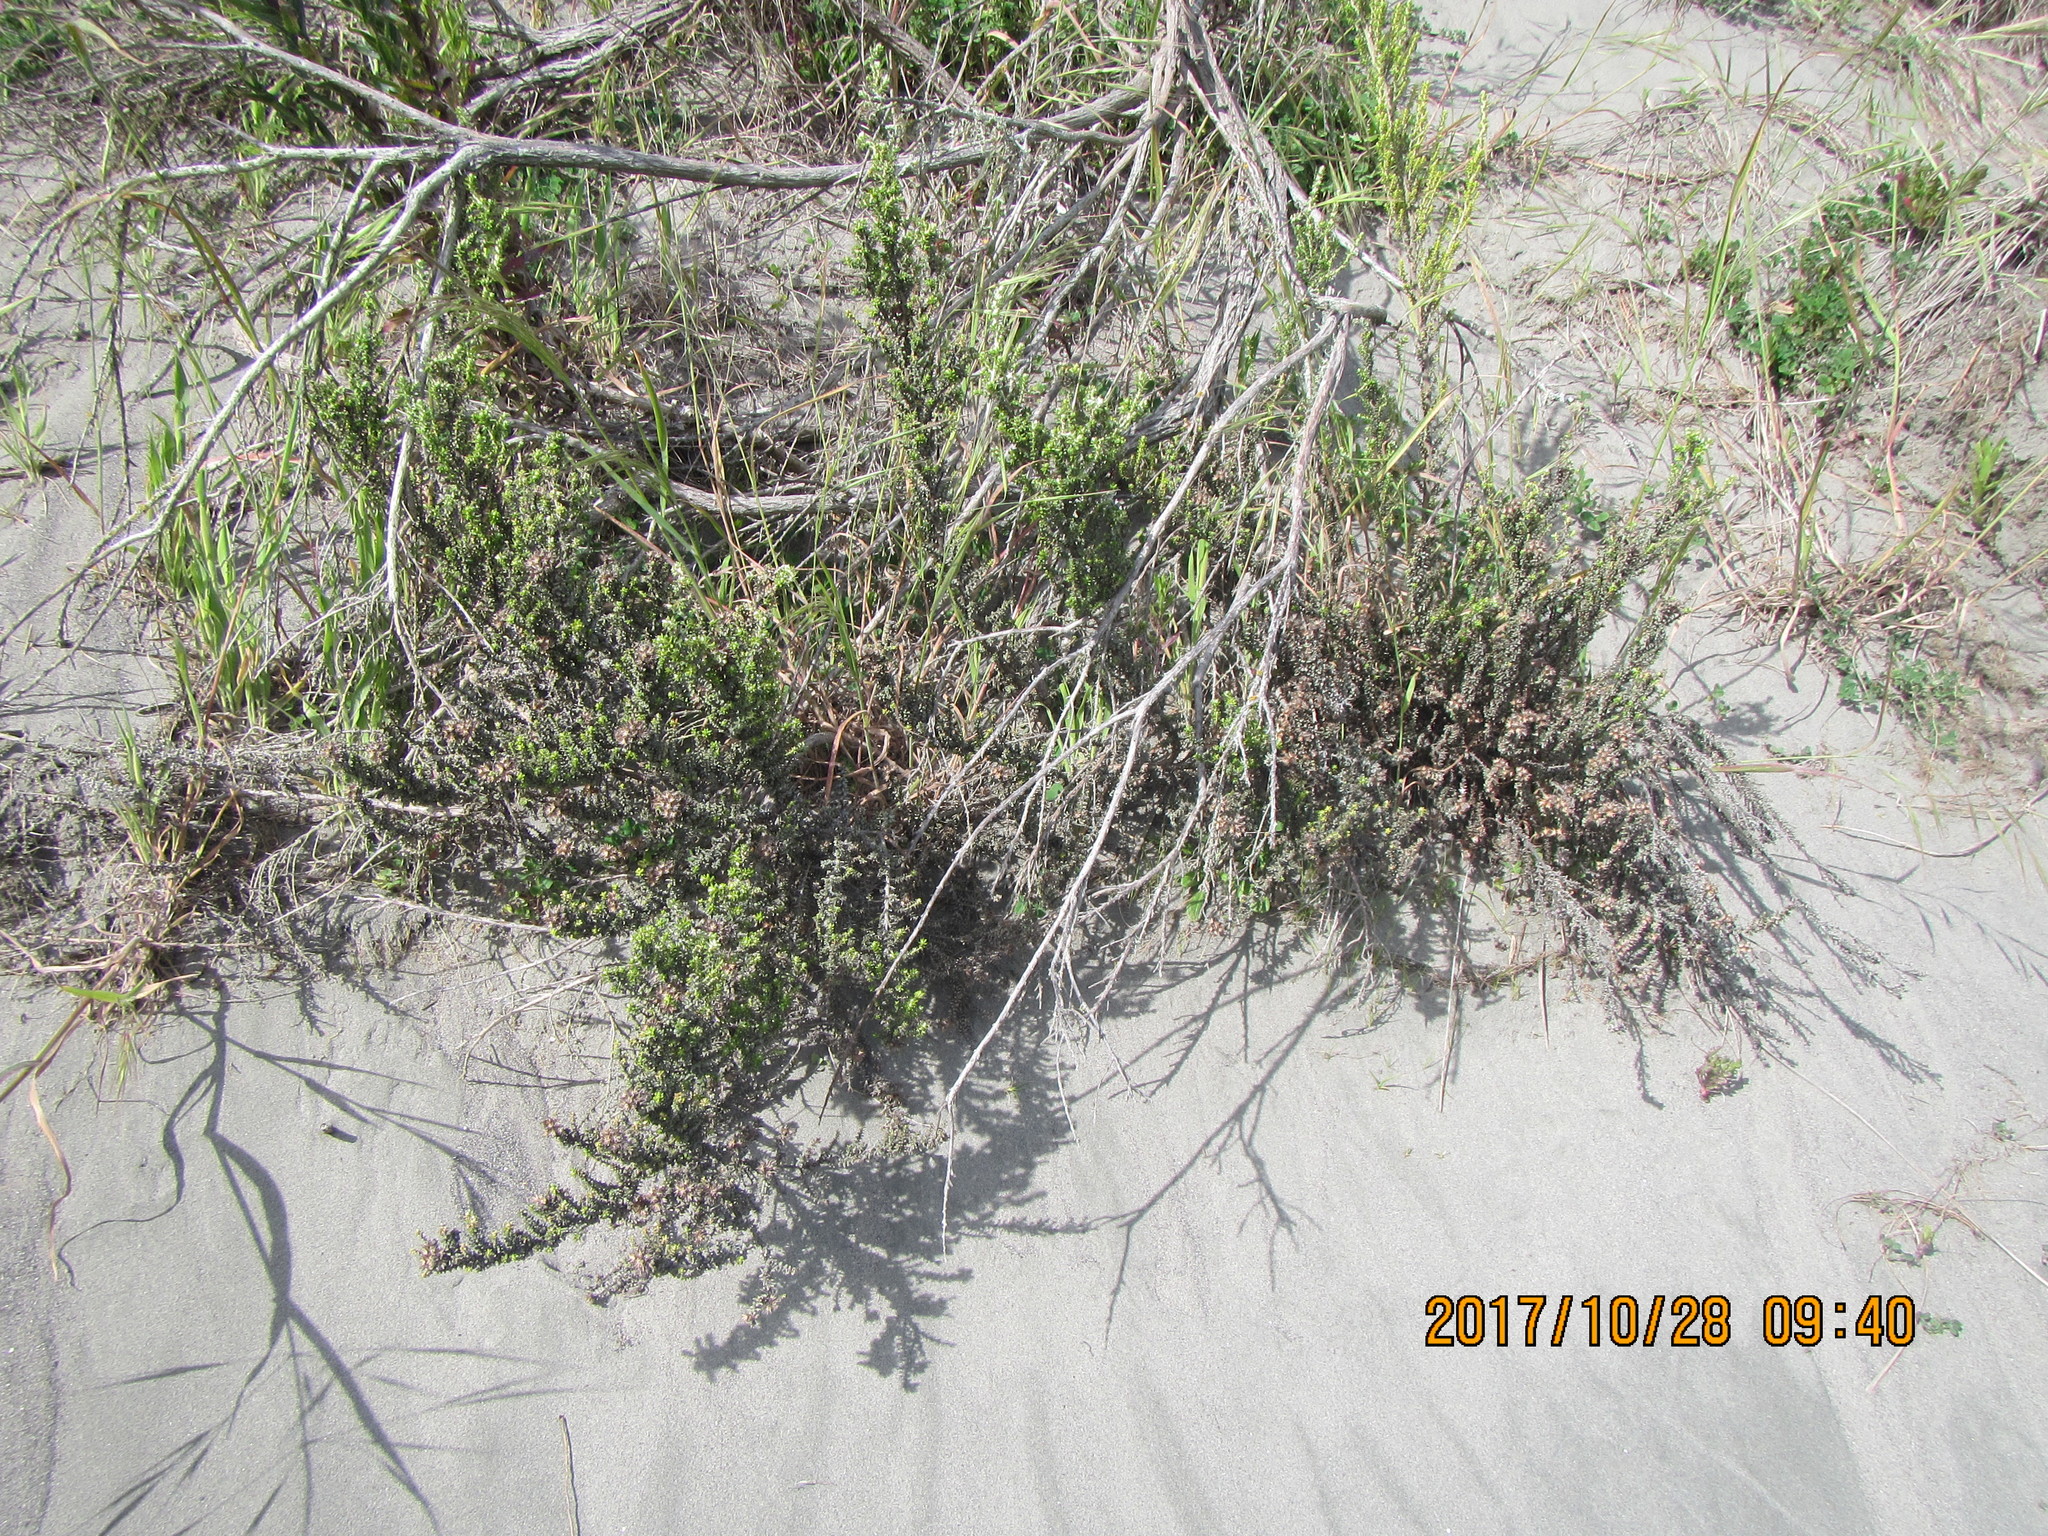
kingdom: Plantae
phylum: Tracheophyta
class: Magnoliopsida
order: Asterales
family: Asteraceae
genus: Ozothamnus
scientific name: Ozothamnus leptophyllus
